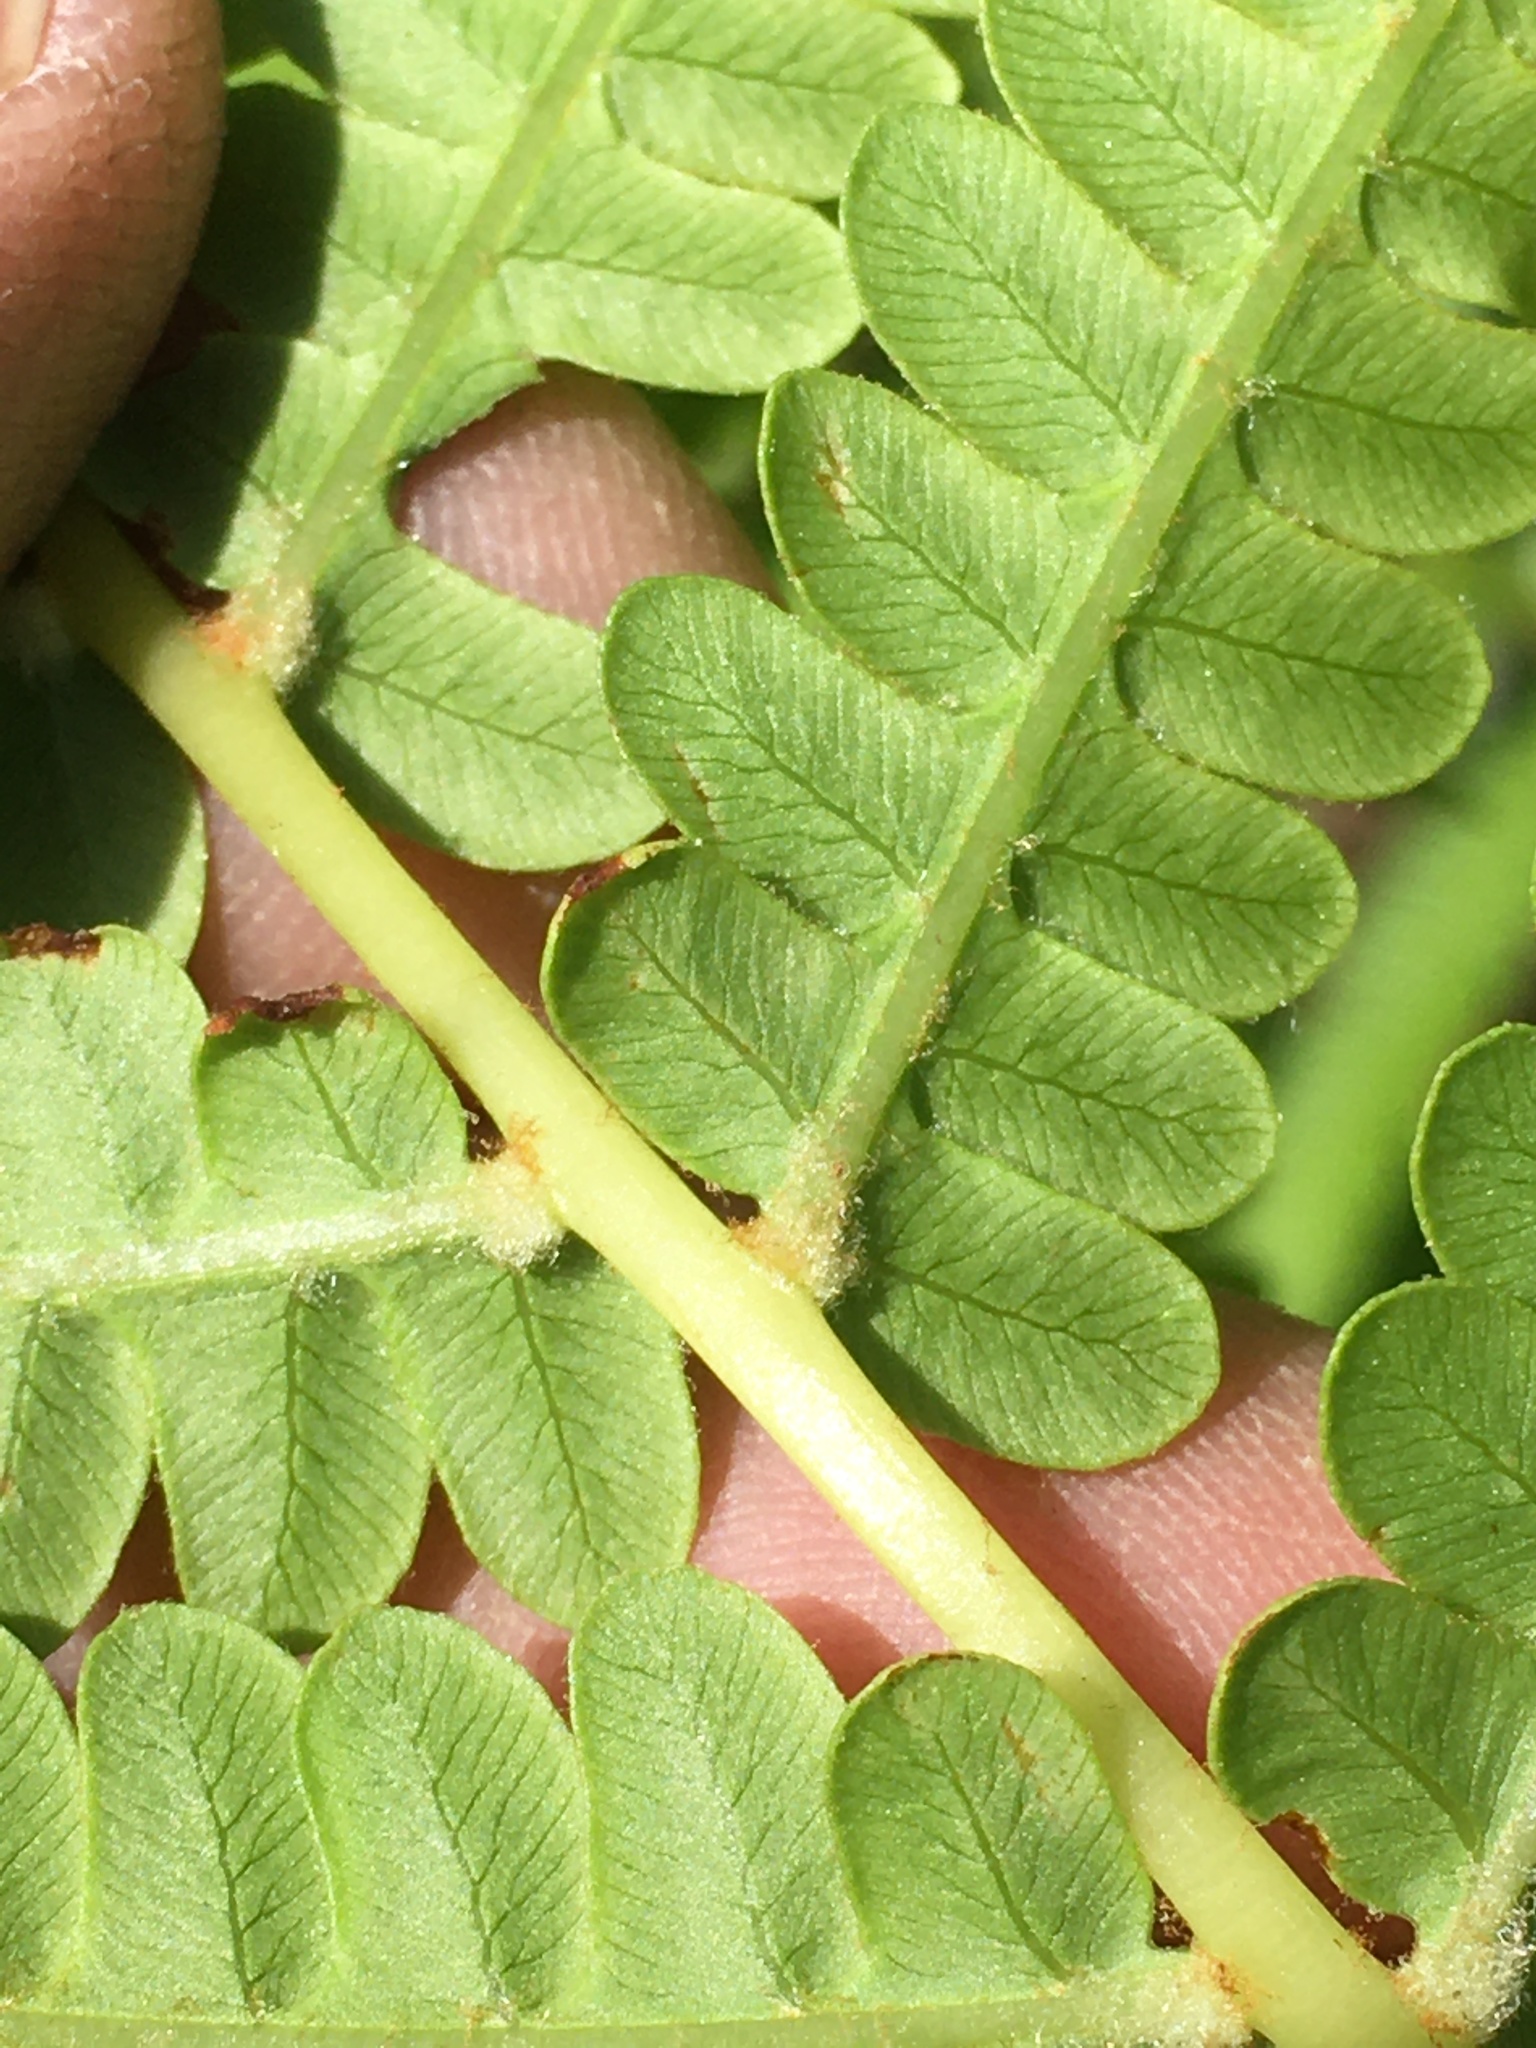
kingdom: Plantae
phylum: Tracheophyta
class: Polypodiopsida
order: Osmundales
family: Osmundaceae
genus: Osmundastrum
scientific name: Osmundastrum cinnamomeum
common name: Cinnamon fern
